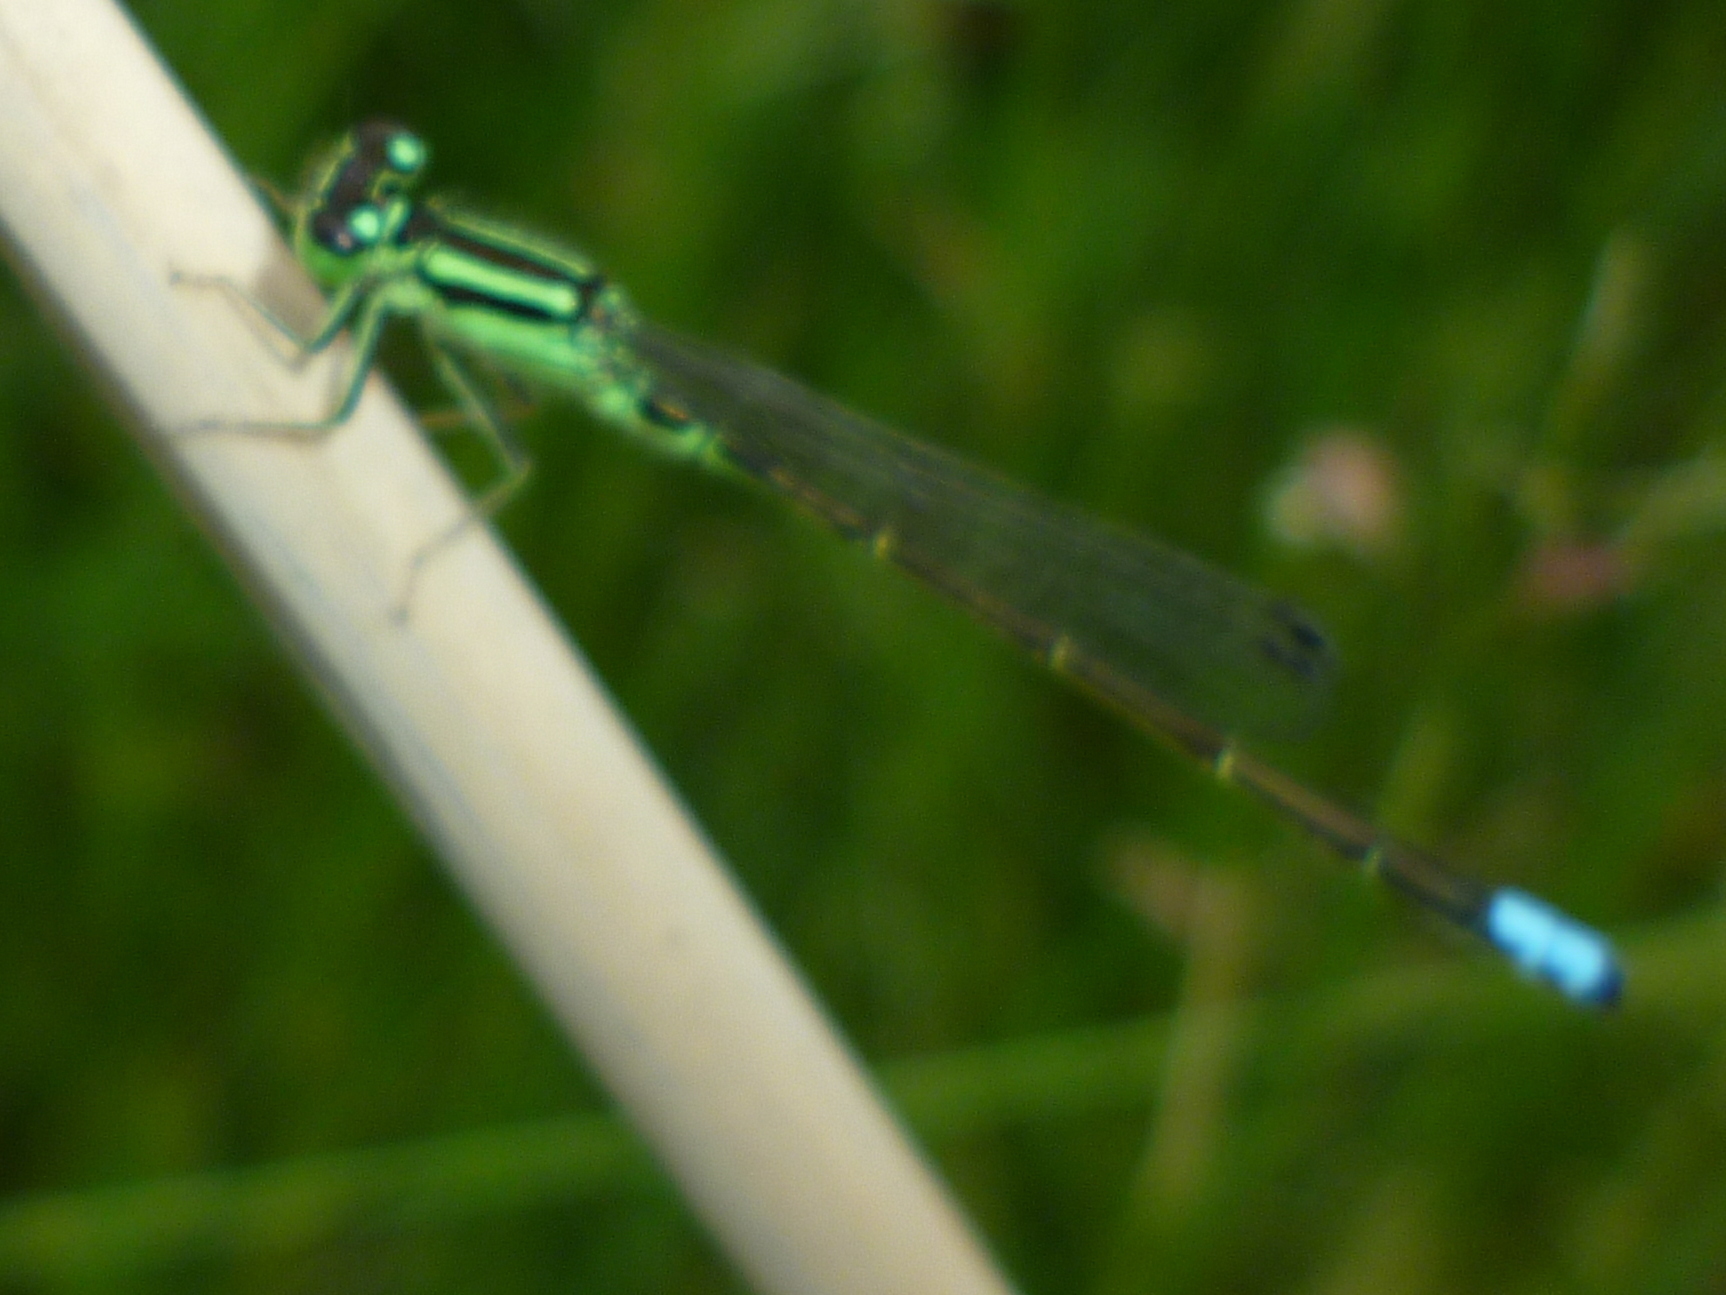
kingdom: Animalia
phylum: Arthropoda
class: Insecta
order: Odonata
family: Coenagrionidae
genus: Ischnura
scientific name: Ischnura verticalis
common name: Eastern forktail
